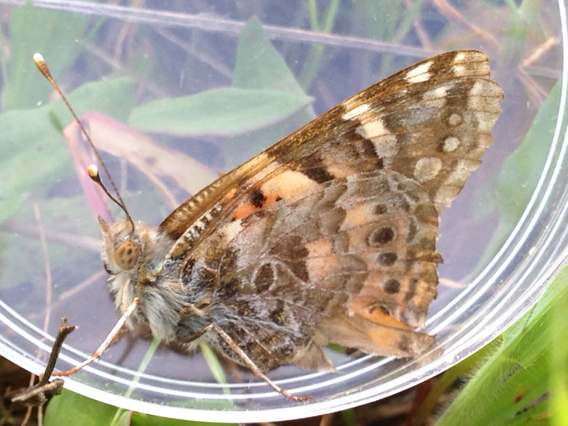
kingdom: Animalia
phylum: Arthropoda
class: Insecta
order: Lepidoptera
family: Nymphalidae
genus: Vanessa
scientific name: Vanessa cardui
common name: Painted lady
